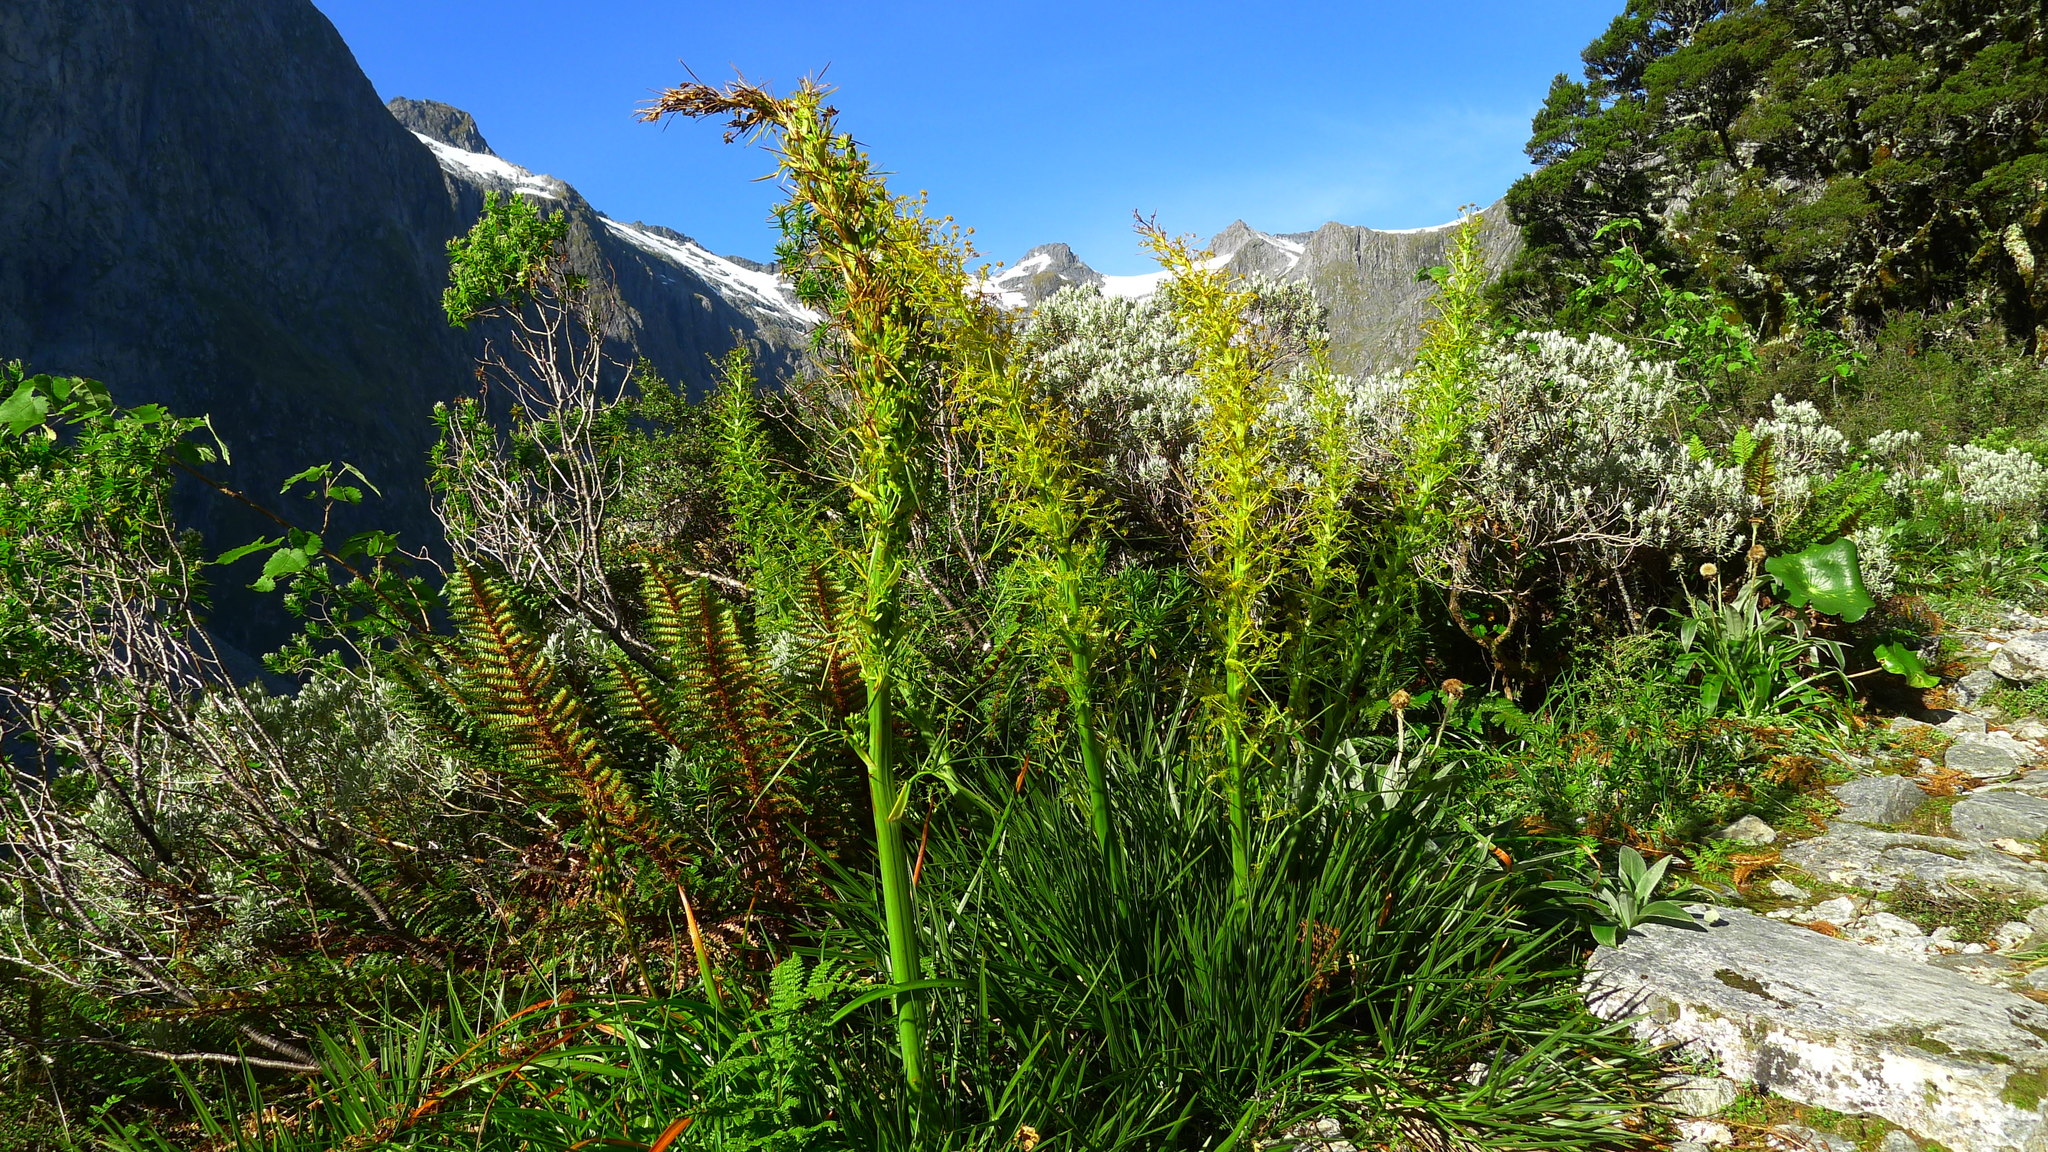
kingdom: Plantae
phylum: Tracheophyta
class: Magnoliopsida
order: Apiales
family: Apiaceae
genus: Aciphylla
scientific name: Aciphylla takahea
